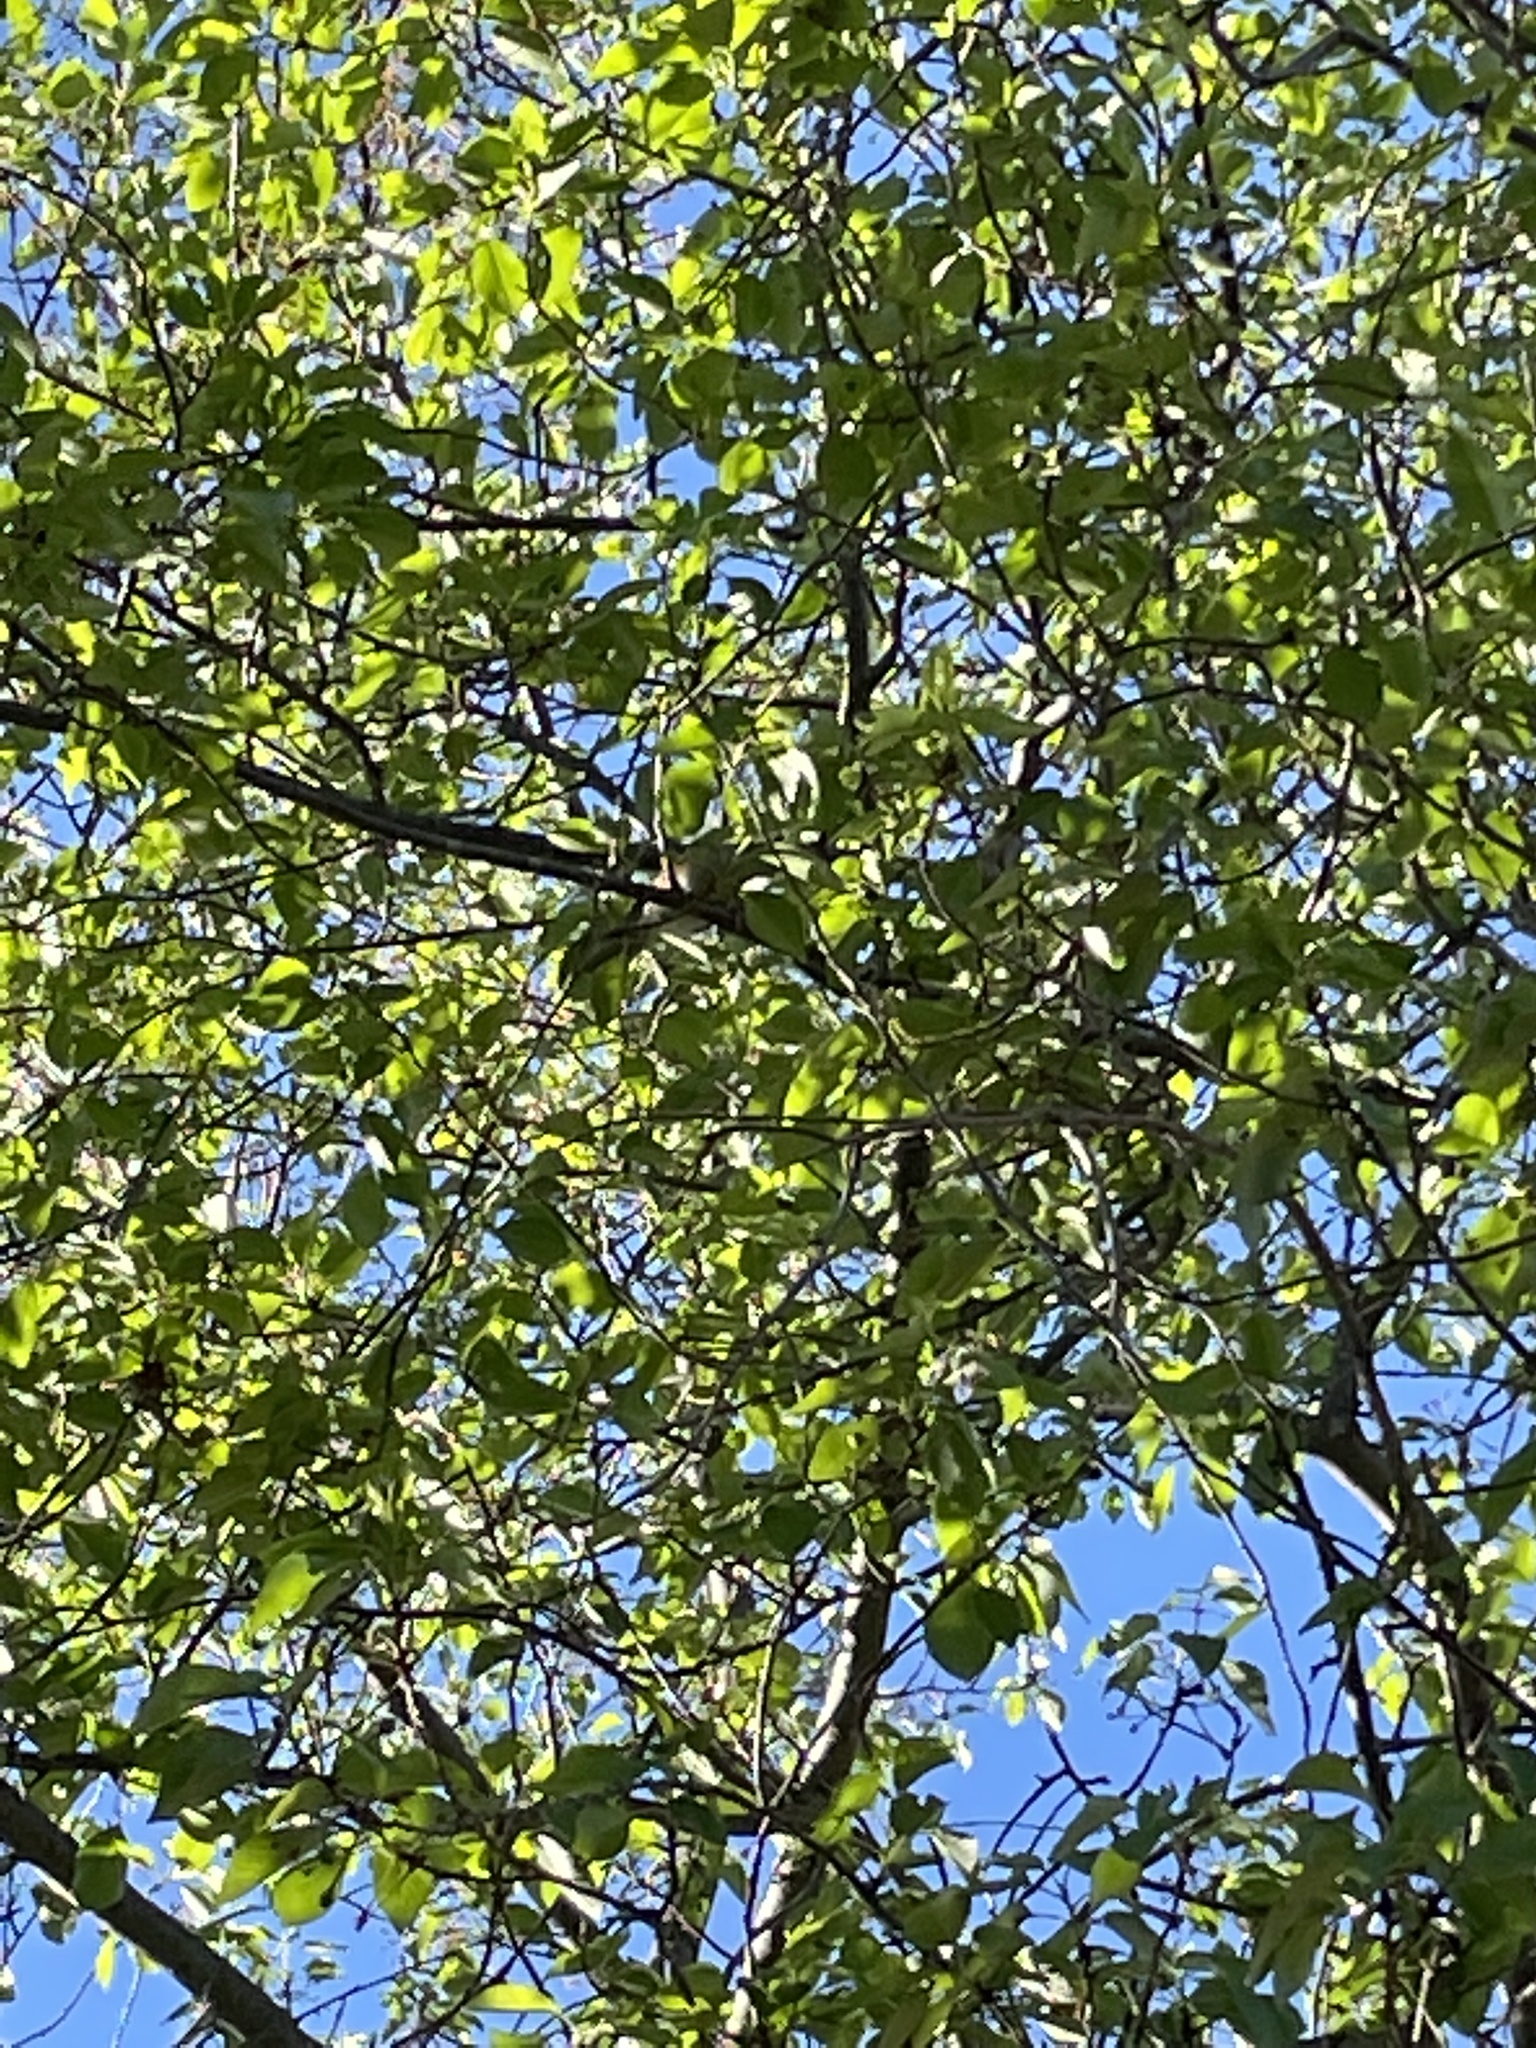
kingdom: Animalia
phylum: Chordata
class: Aves
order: Passeriformes
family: Paridae
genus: Baeolophus
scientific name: Baeolophus bicolor
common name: Tufted titmouse
